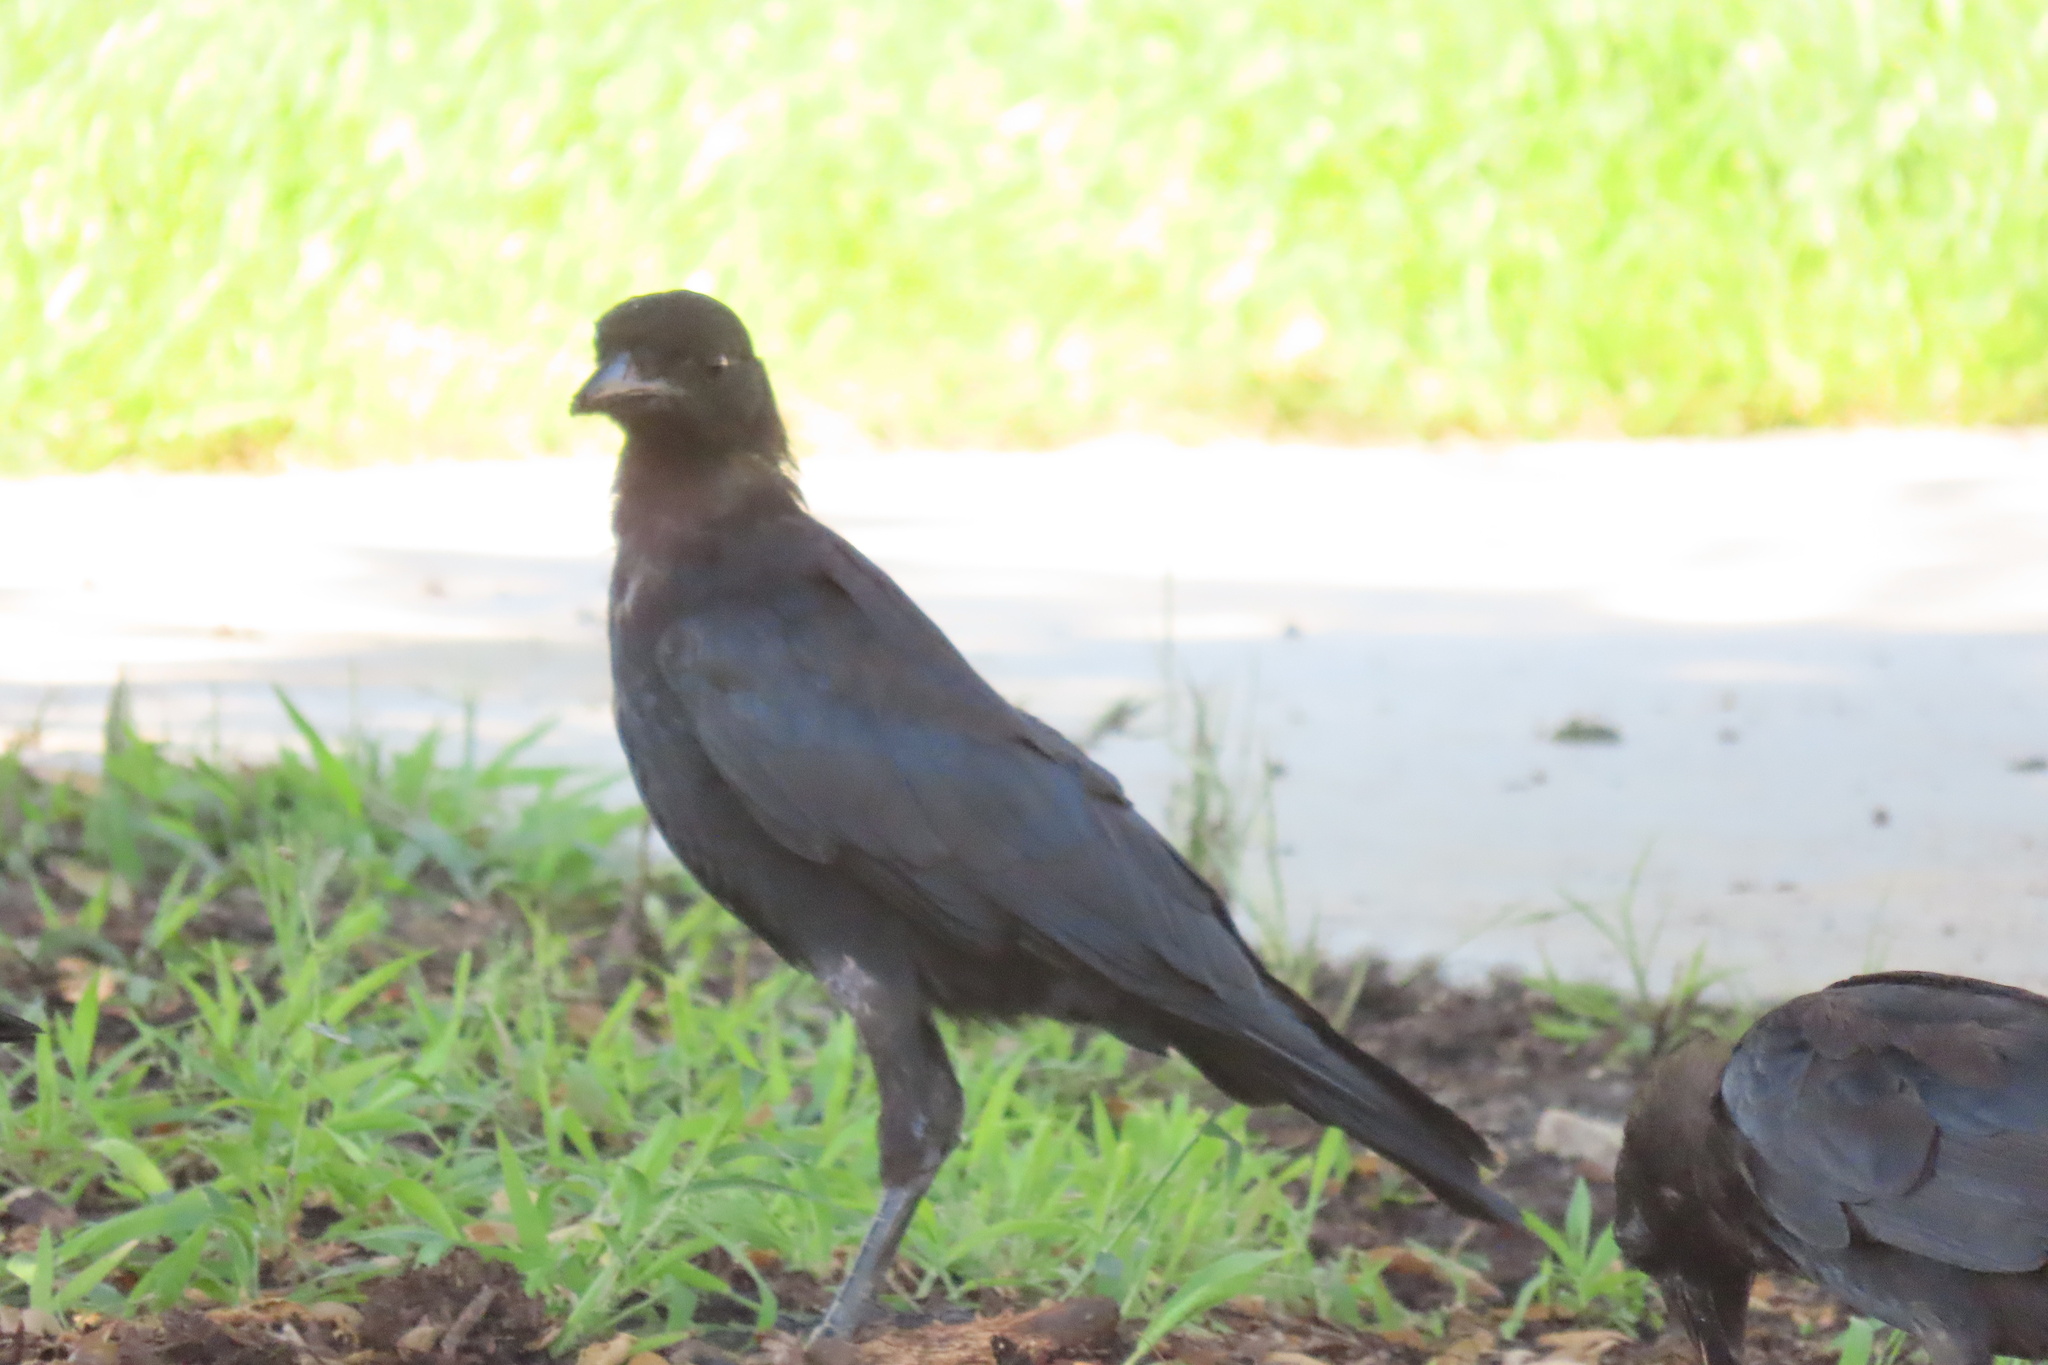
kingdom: Animalia
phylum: Chordata
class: Aves
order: Passeriformes
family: Corvidae
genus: Corvus
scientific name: Corvus brachyrhynchos
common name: American crow
